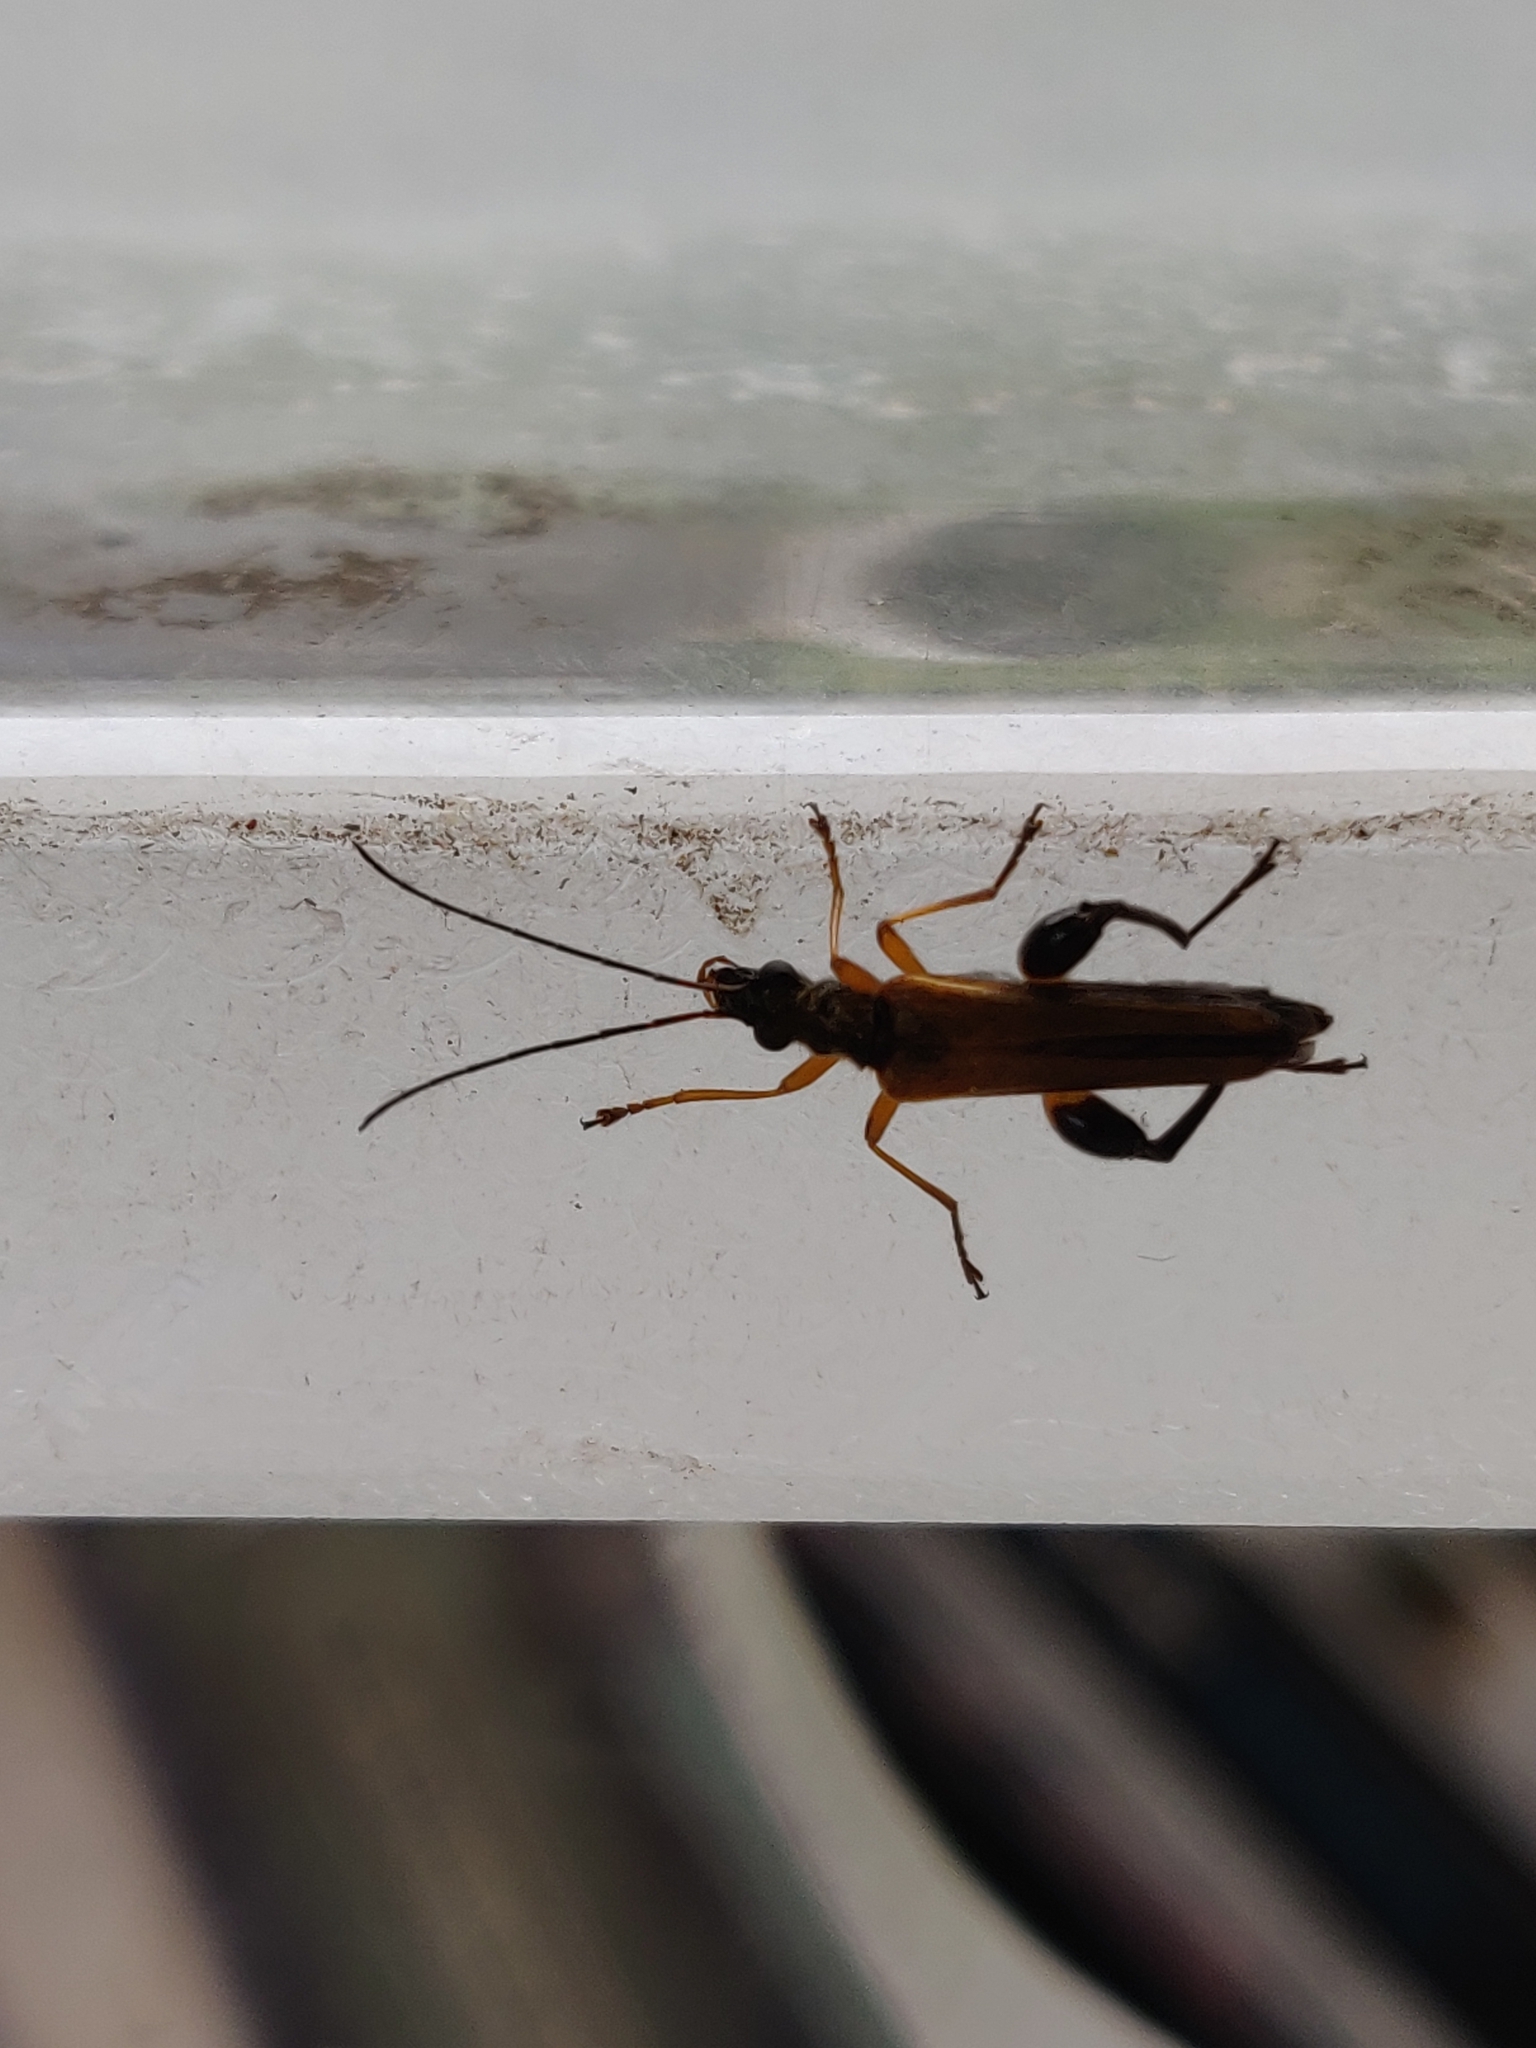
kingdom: Animalia
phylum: Arthropoda
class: Insecta
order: Coleoptera
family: Oedemeridae
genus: Oedemera
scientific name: Oedemera podagrariae
